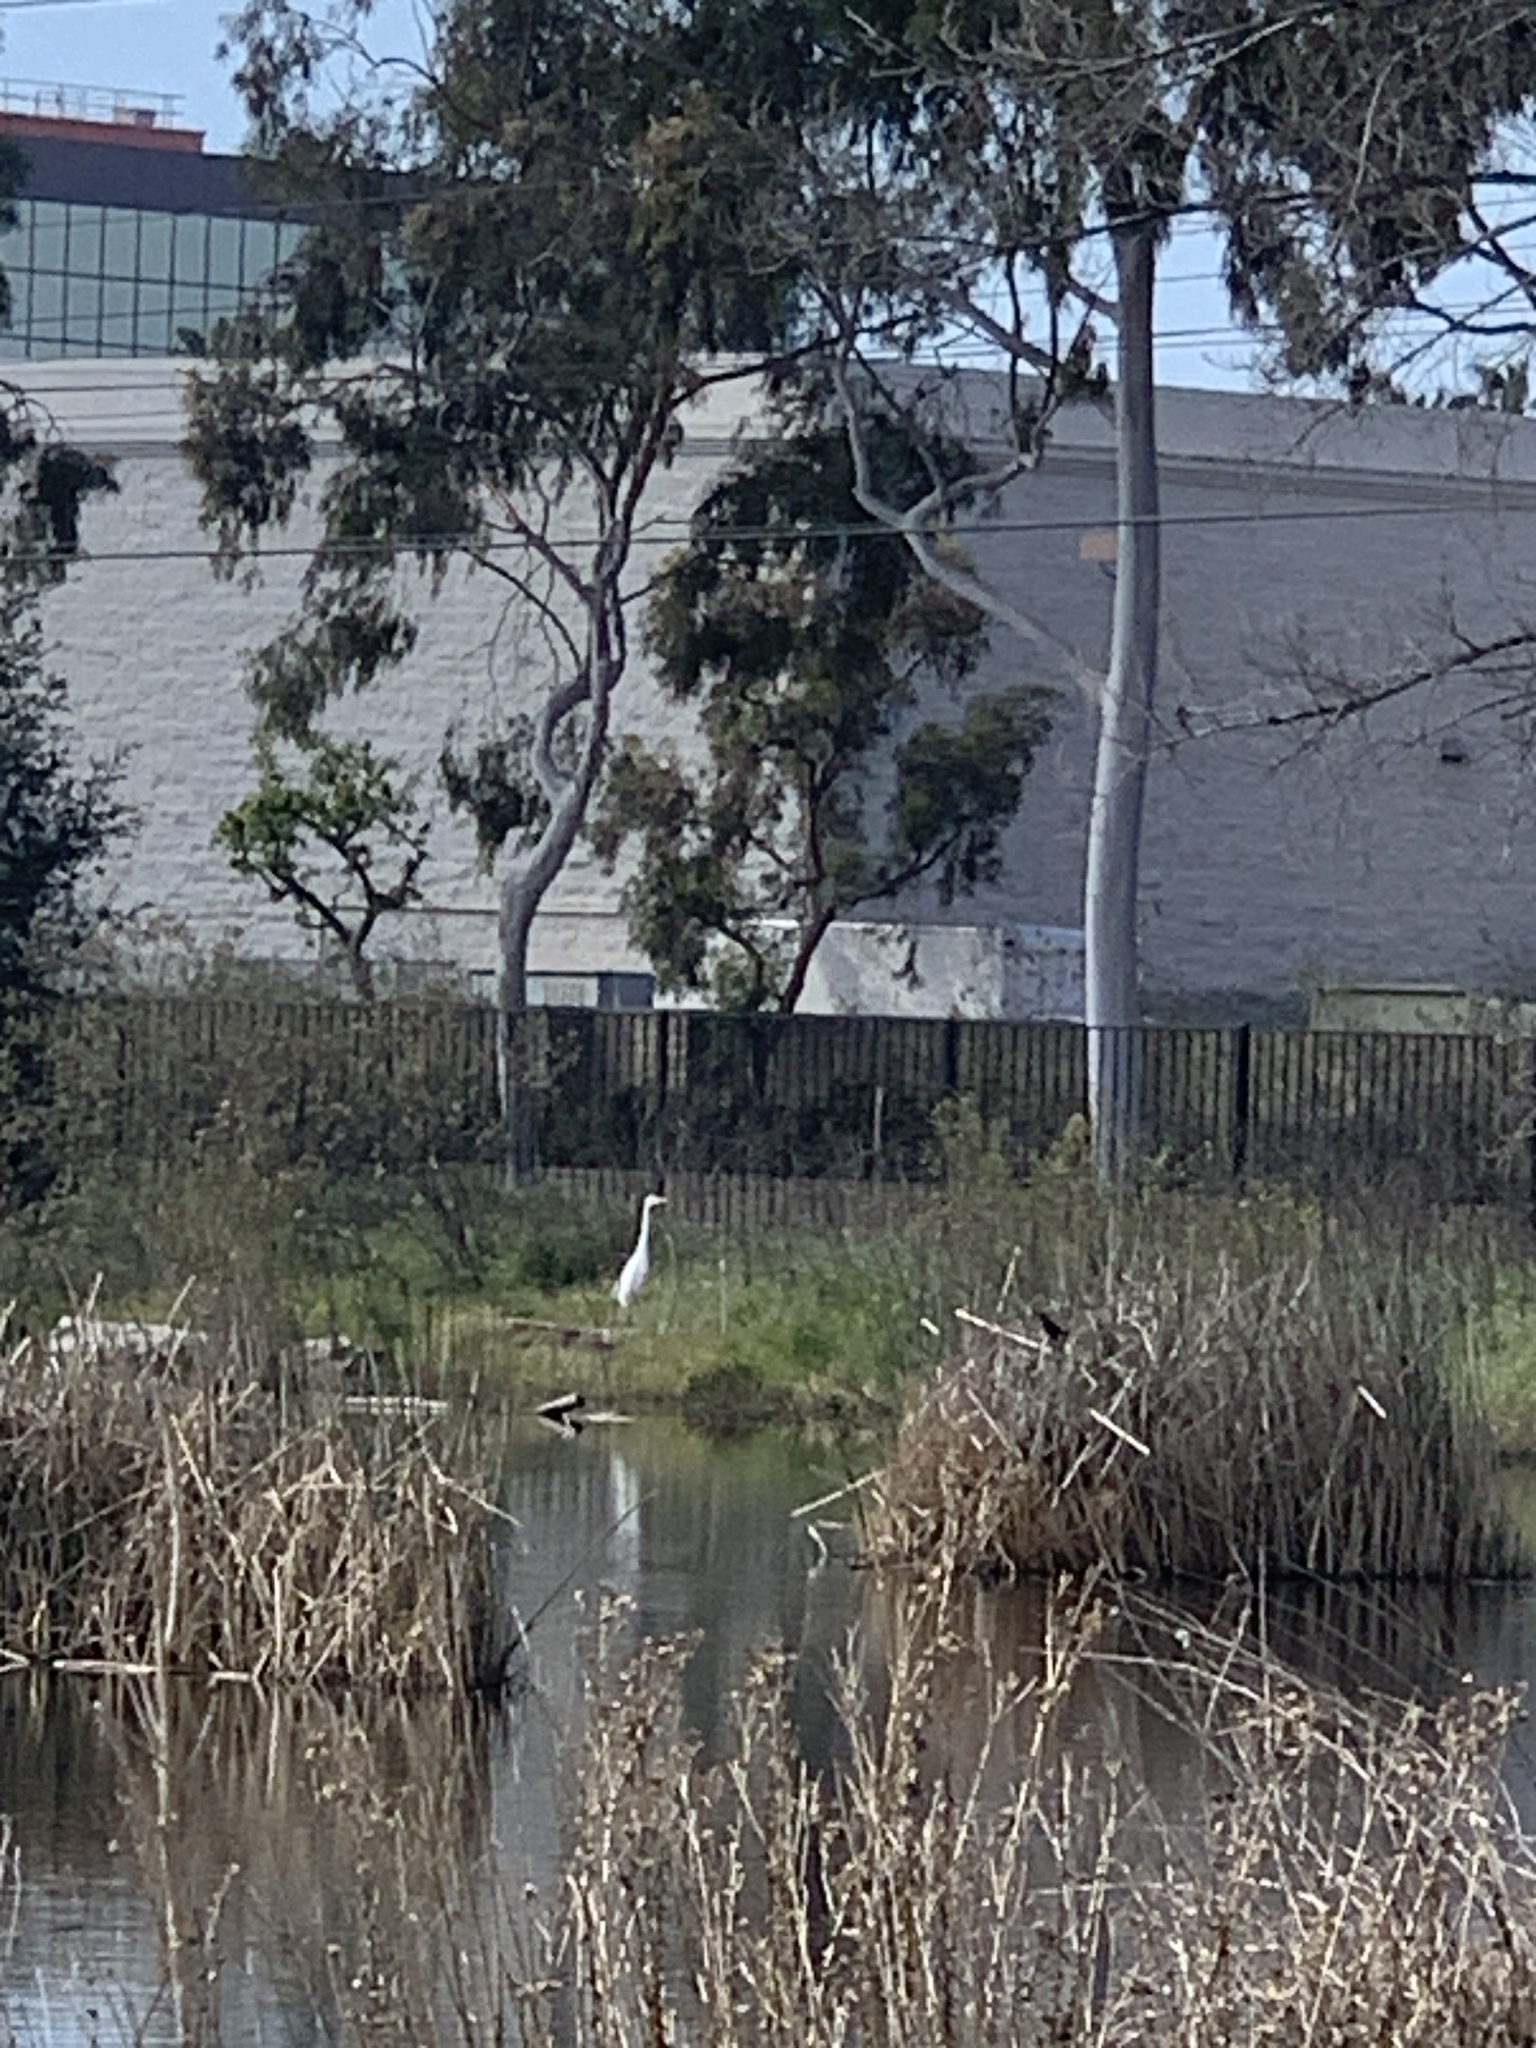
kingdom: Animalia
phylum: Chordata
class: Aves
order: Pelecaniformes
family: Ardeidae
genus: Ardea
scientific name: Ardea alba
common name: Great egret
